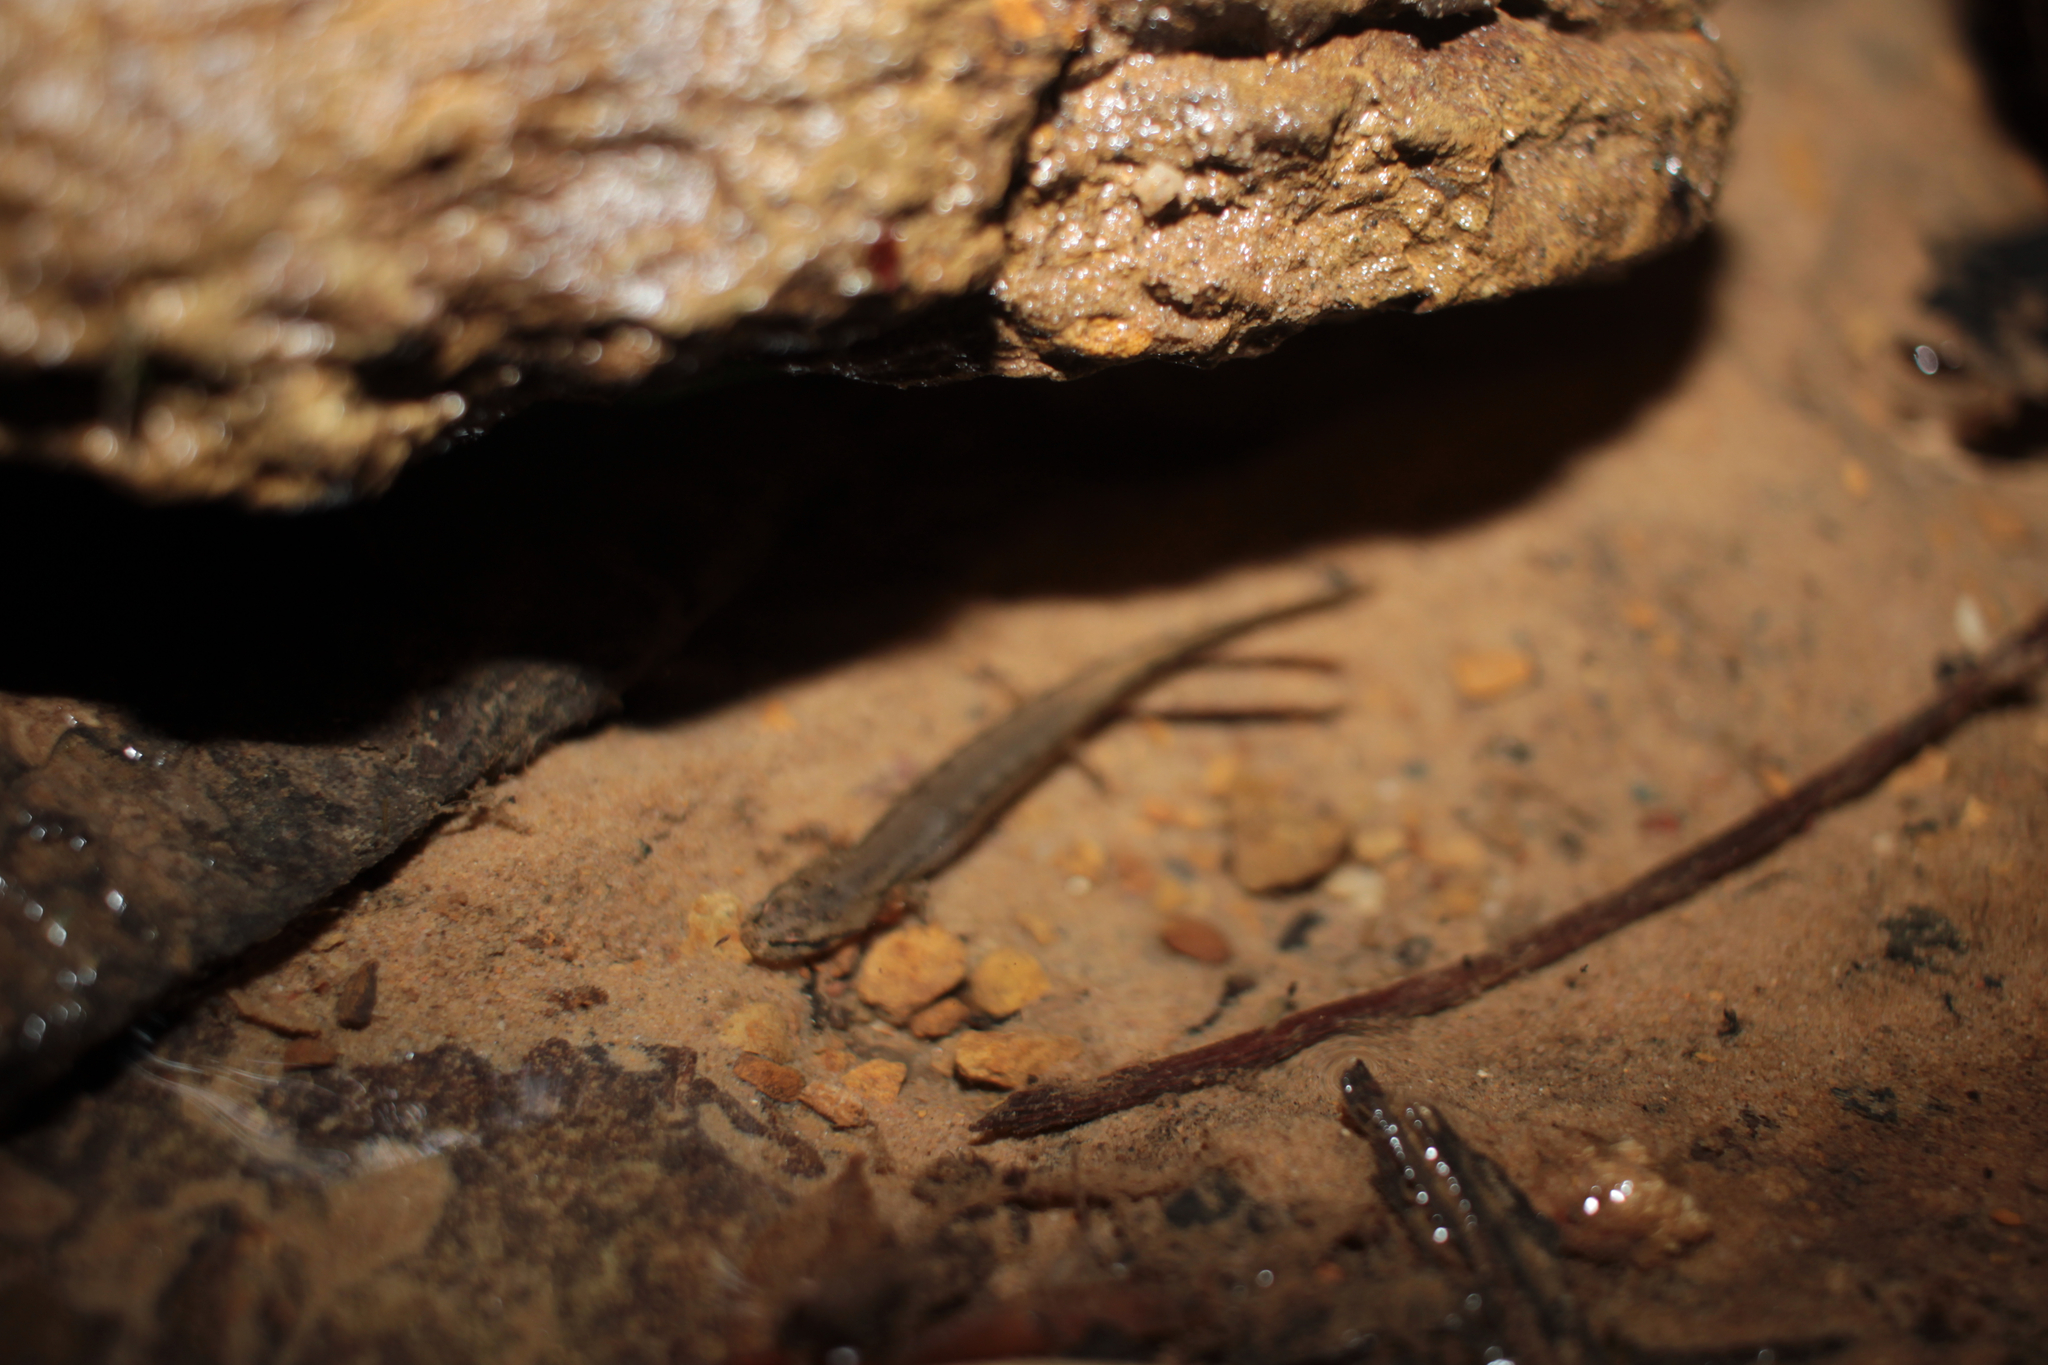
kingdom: Animalia
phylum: Chordata
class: Amphibia
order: Caudata
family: Plethodontidae
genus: Eurycea
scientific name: Eurycea aquatica
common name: Brown-backed salamander
